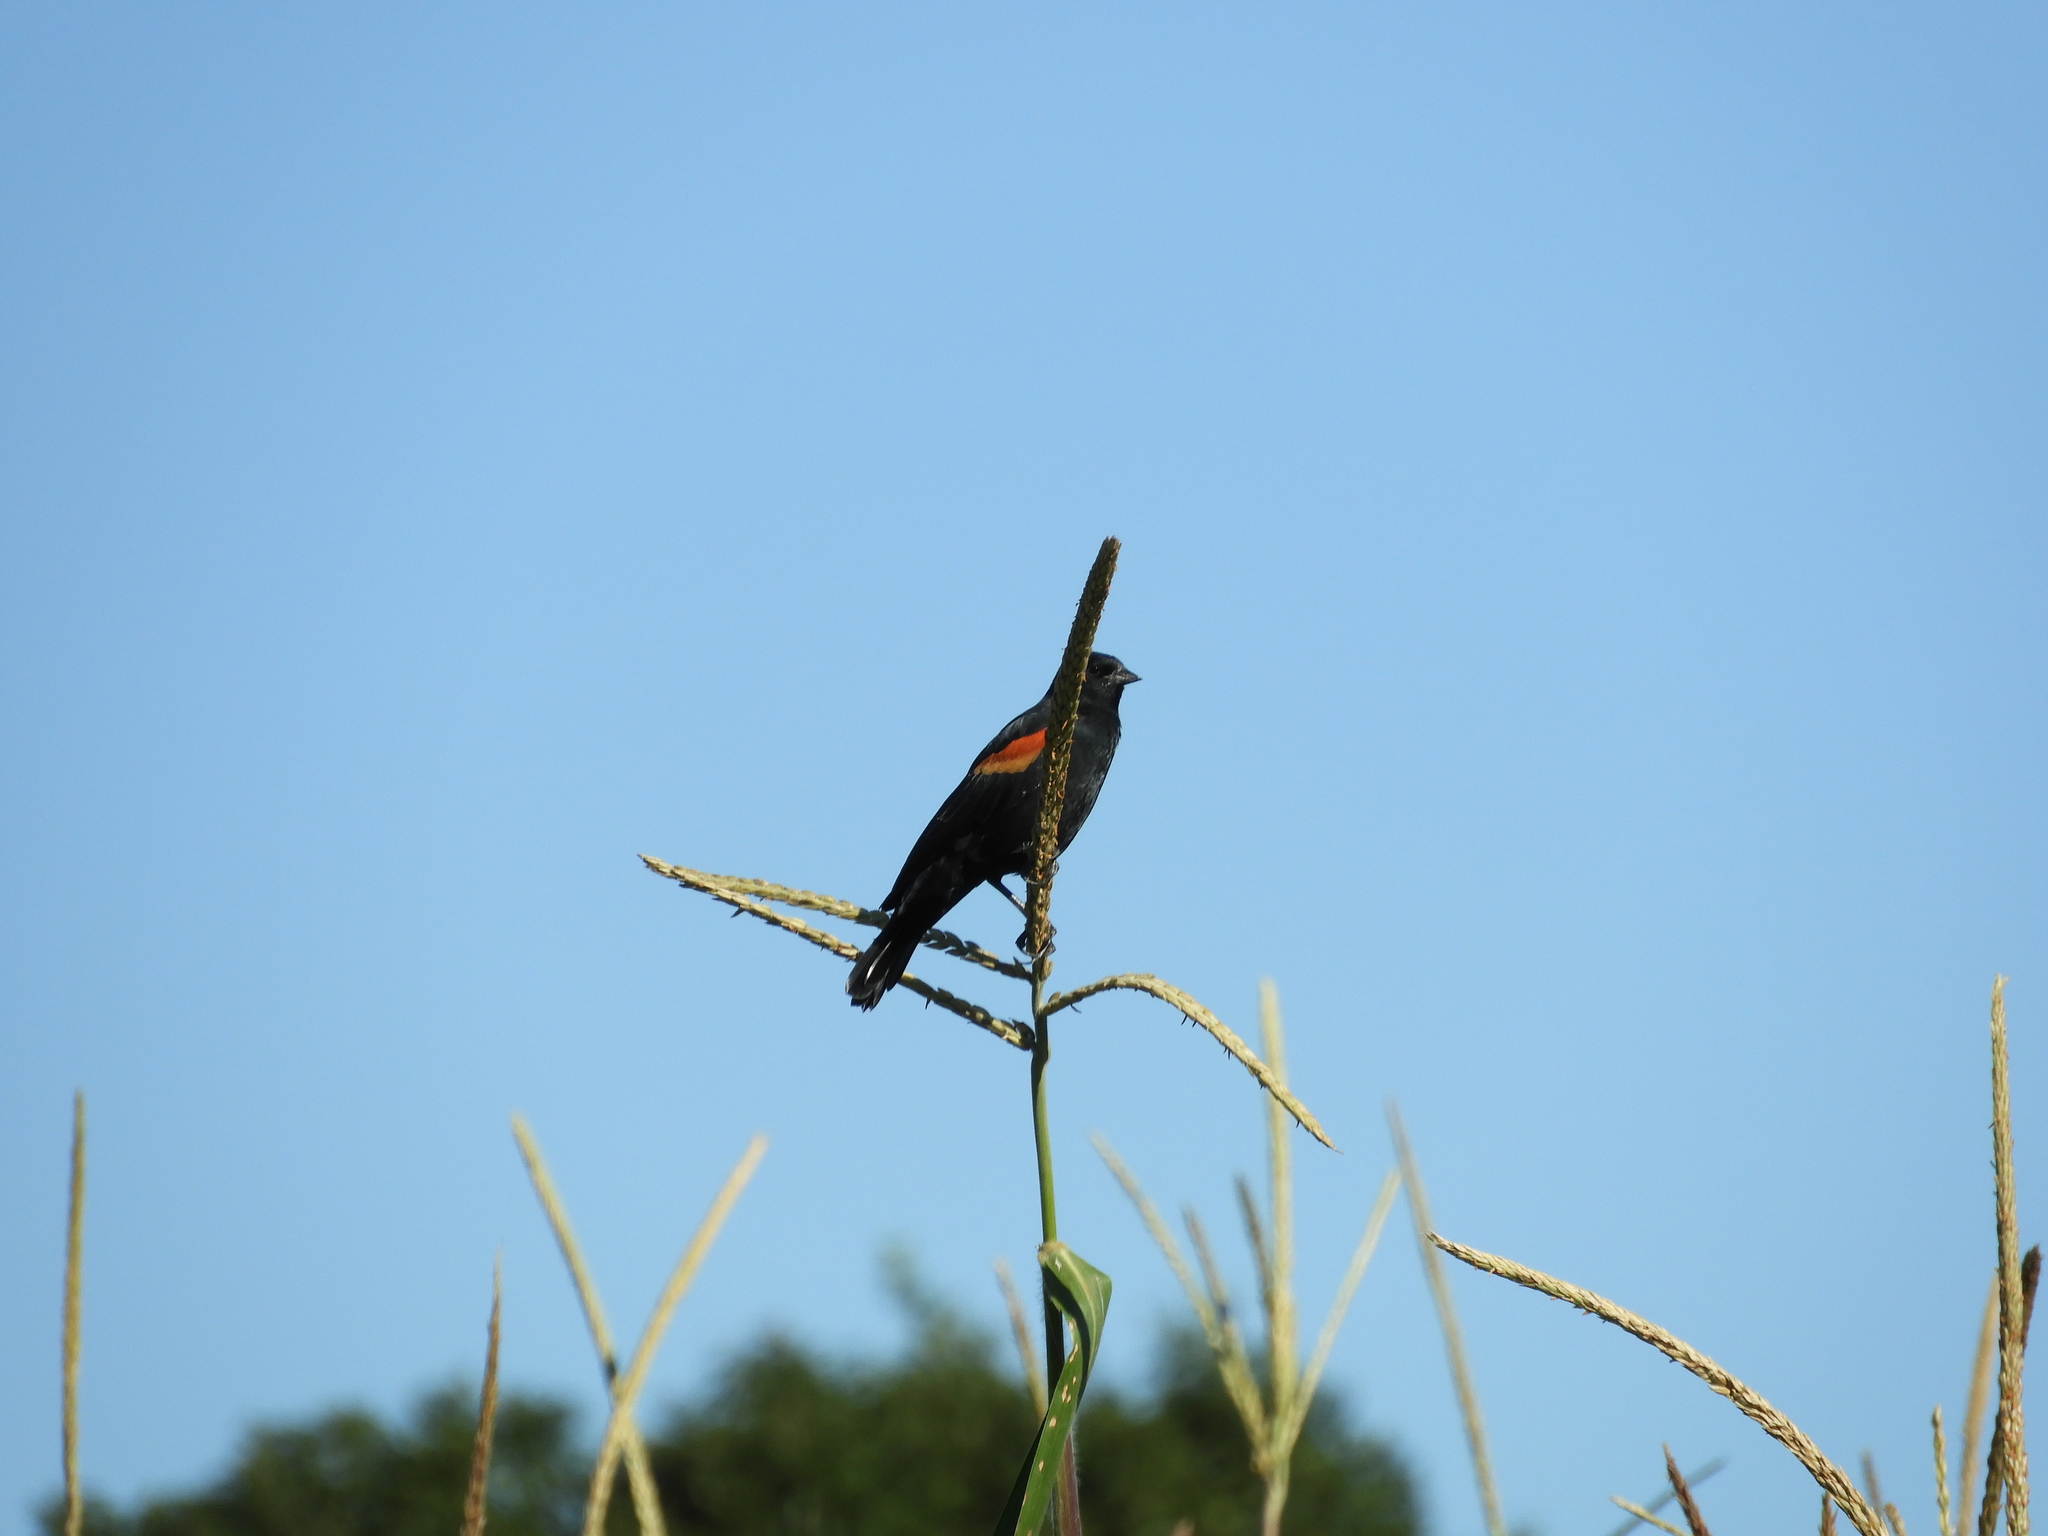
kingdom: Animalia
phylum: Chordata
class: Aves
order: Passeriformes
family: Icteridae
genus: Agelaius
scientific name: Agelaius phoeniceus
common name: Red-winged blackbird
